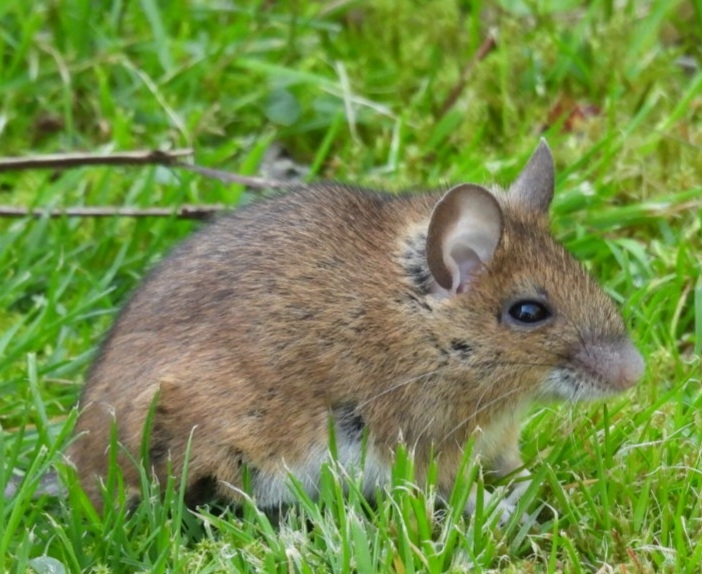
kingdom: Animalia
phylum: Chordata
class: Mammalia
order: Rodentia
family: Muridae
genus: Apodemus
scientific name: Apodemus sylvaticus
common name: Wood mouse
